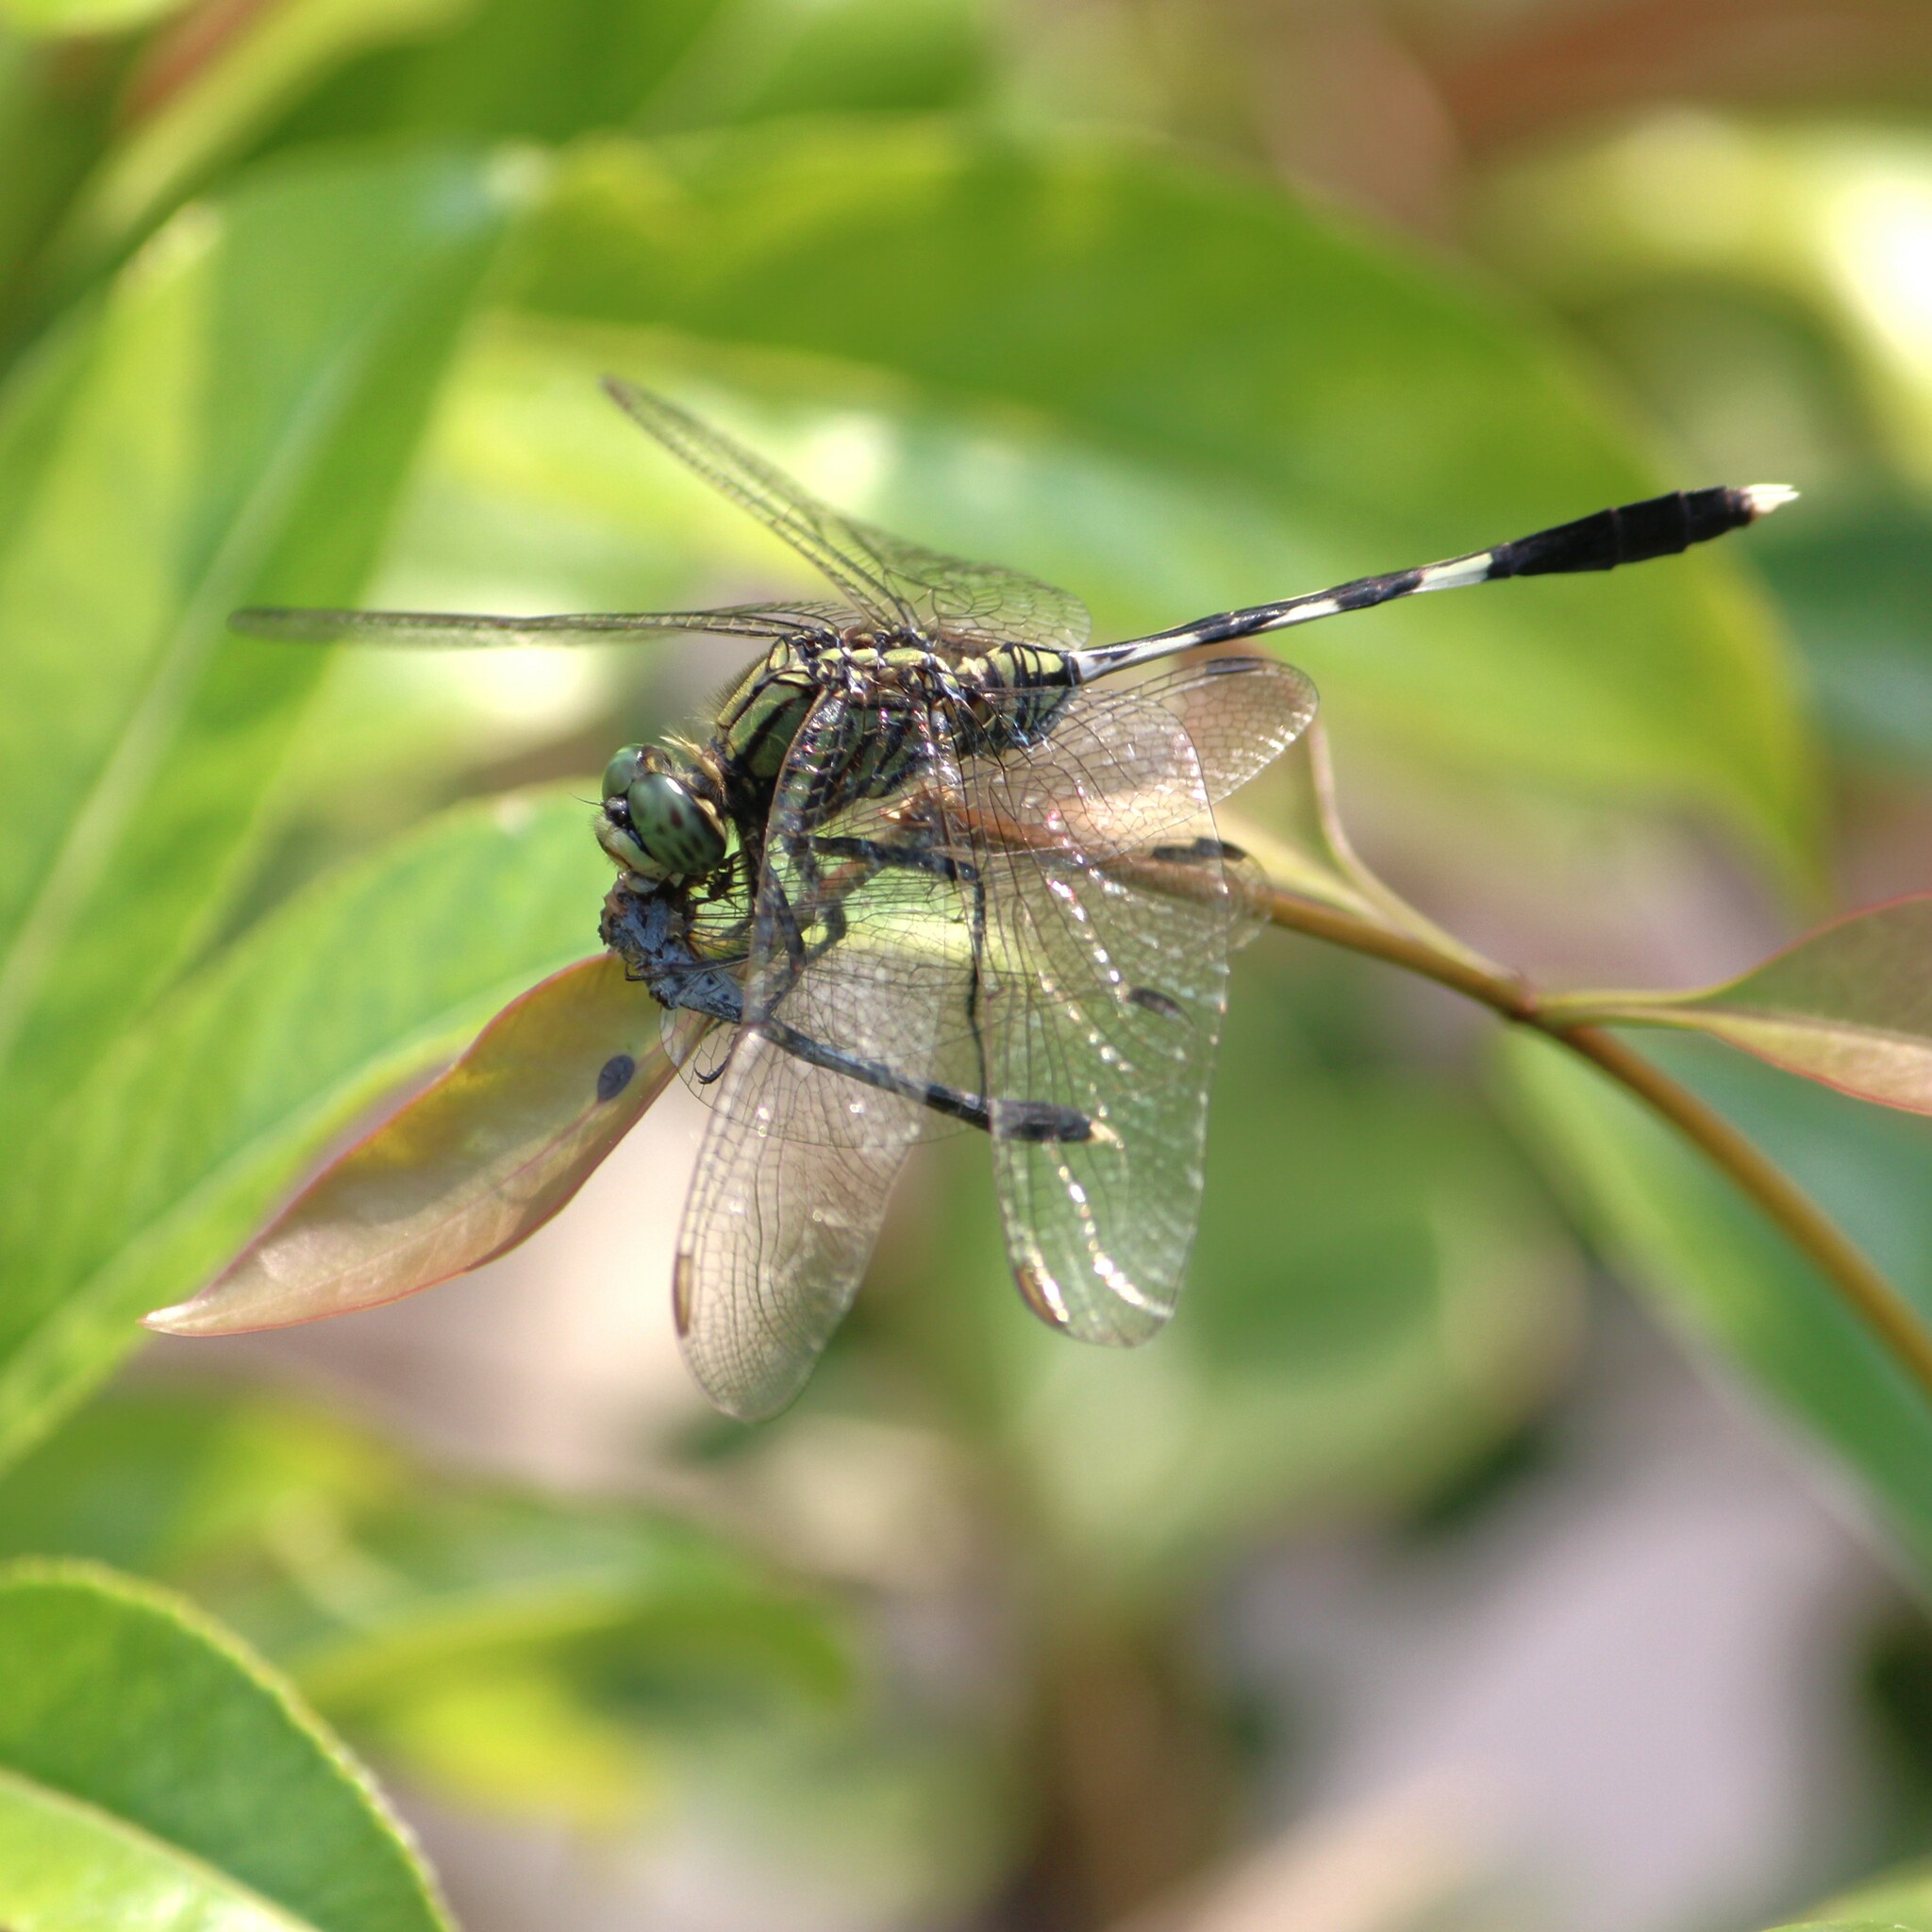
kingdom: Animalia
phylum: Arthropoda
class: Insecta
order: Odonata
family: Libellulidae
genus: Diplacodes
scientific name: Diplacodes trivialis
